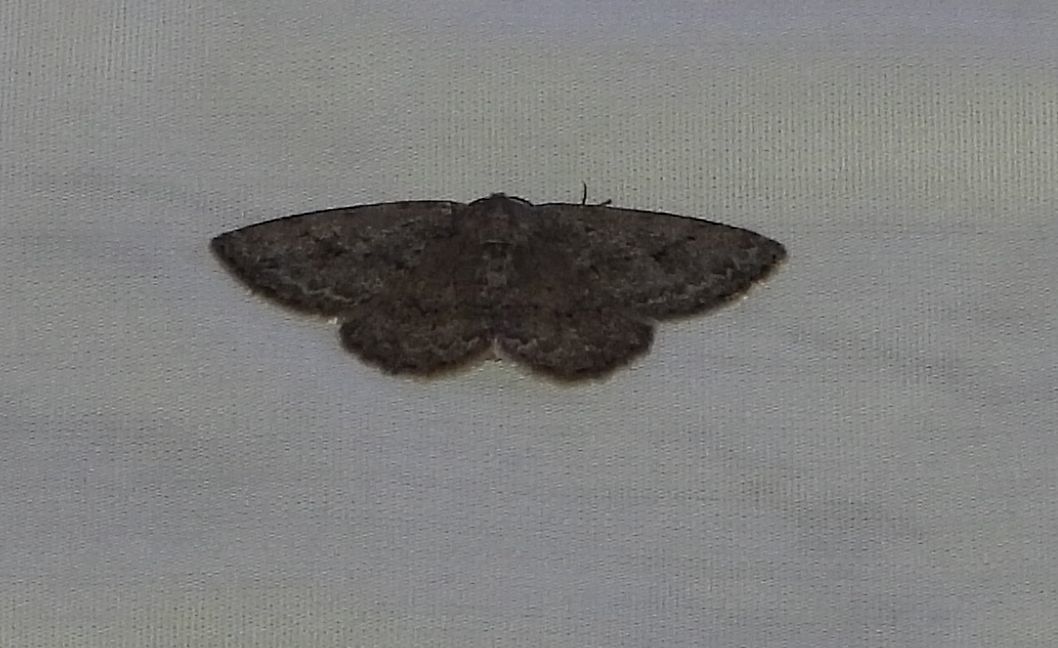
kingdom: Animalia
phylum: Arthropoda
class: Insecta
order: Lepidoptera
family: Geometridae
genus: Ectropis
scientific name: Ectropis crepuscularia
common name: Engrailed
